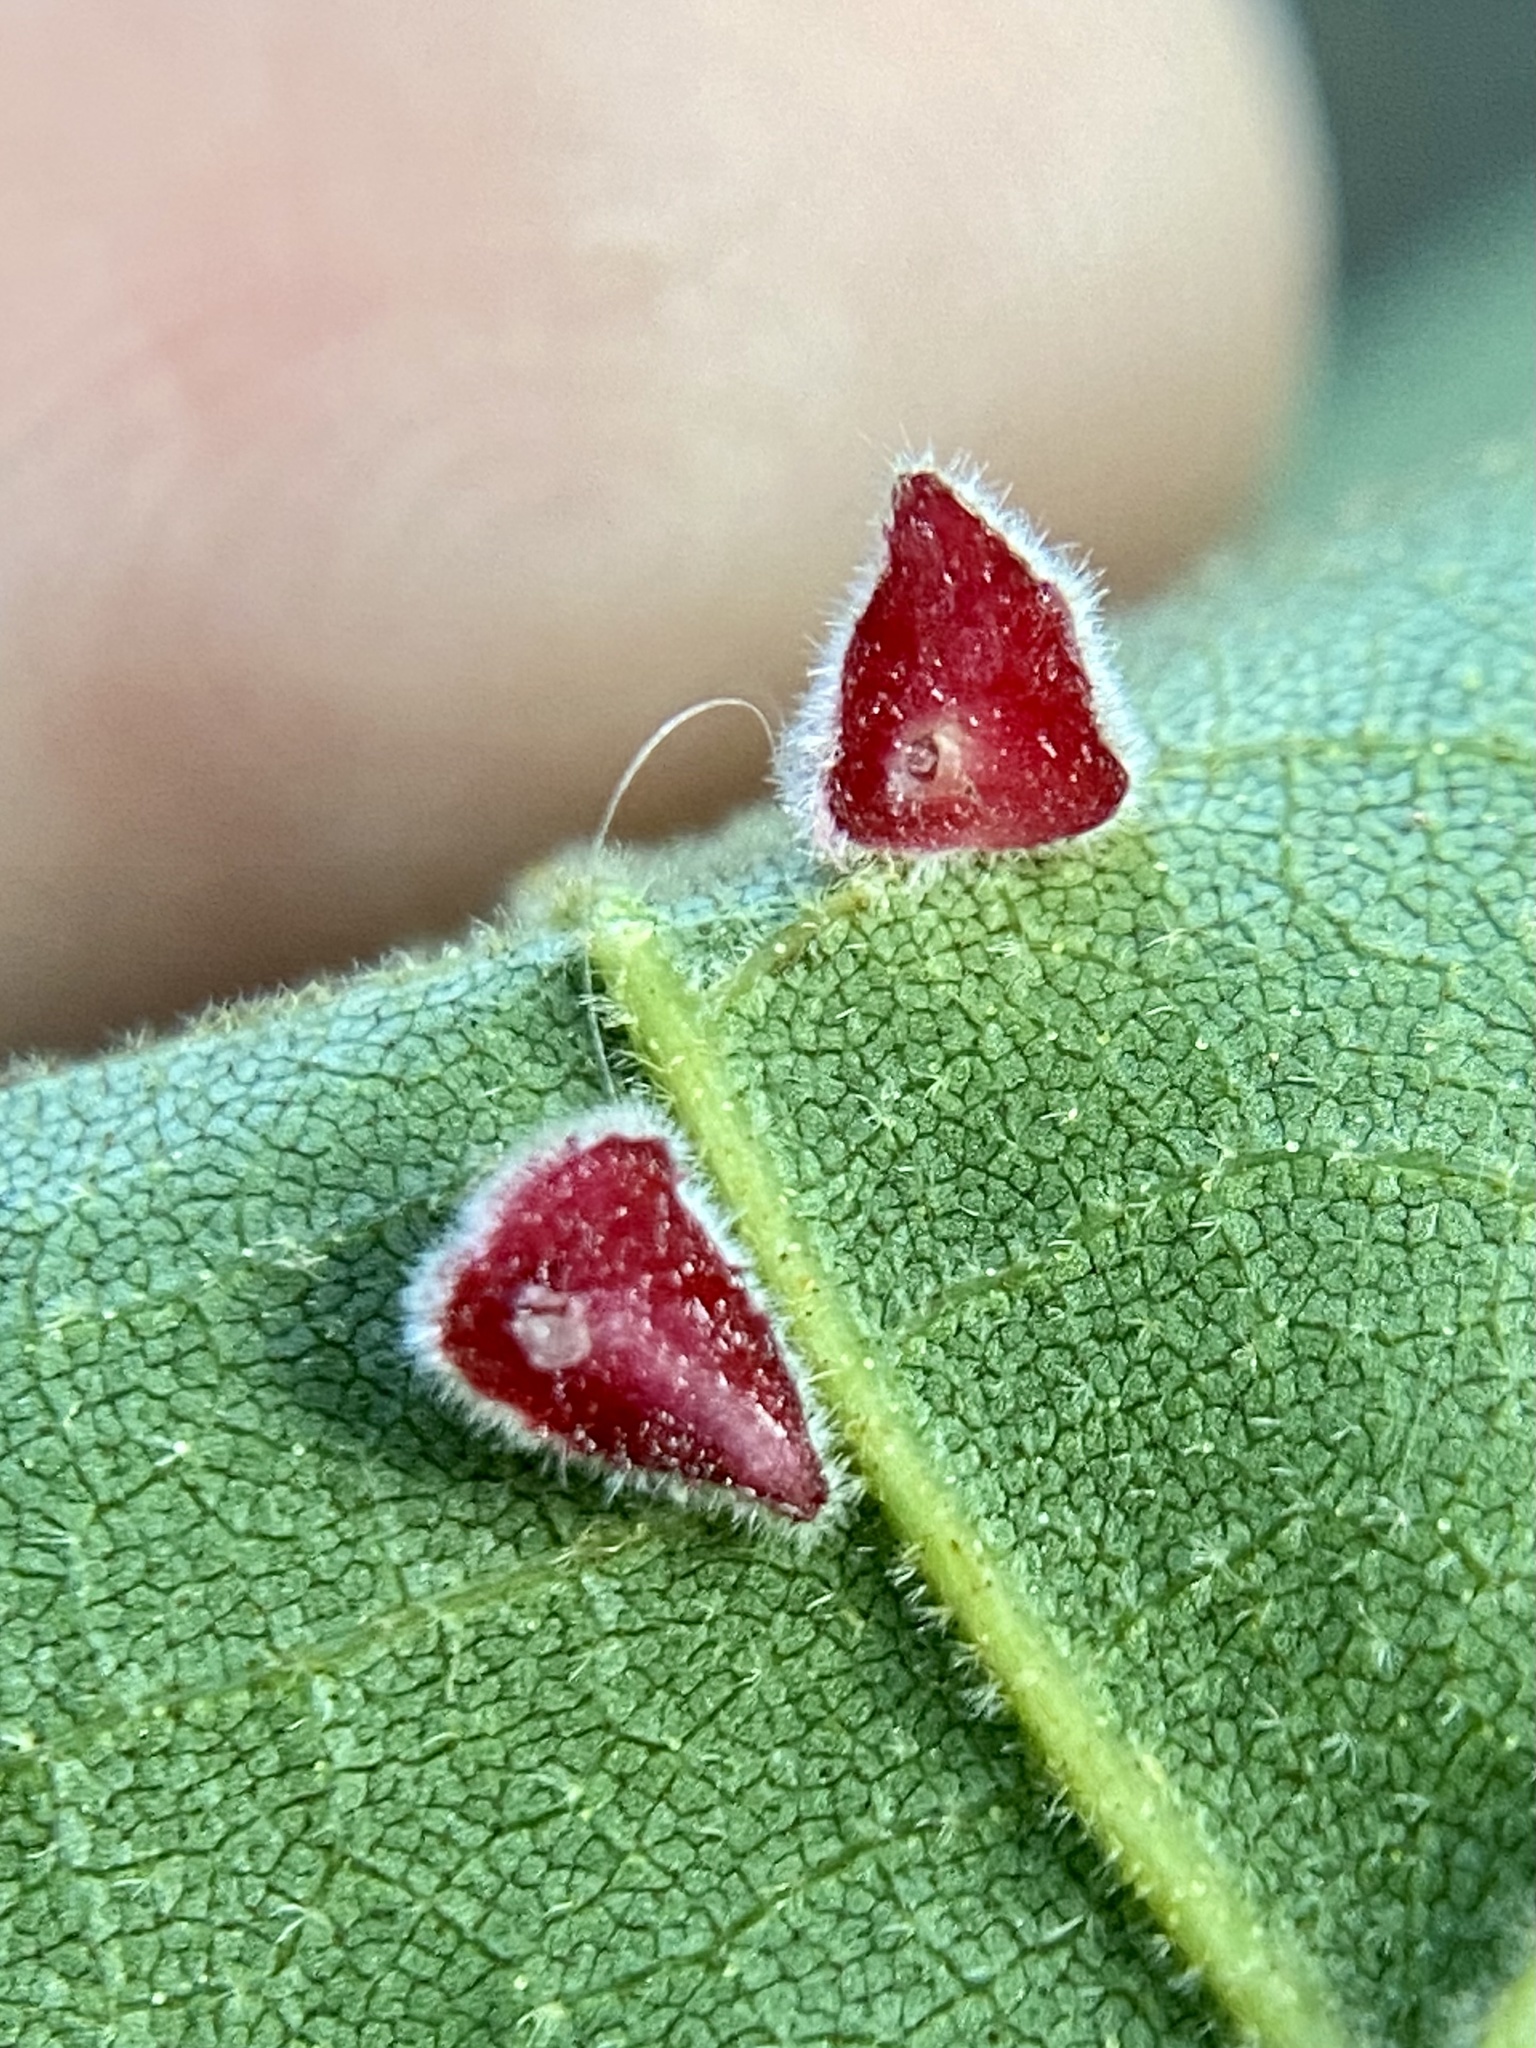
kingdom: Animalia
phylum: Arthropoda
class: Insecta
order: Diptera
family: Cecidomyiidae
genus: Caryomyia
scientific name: Caryomyia persicoides
